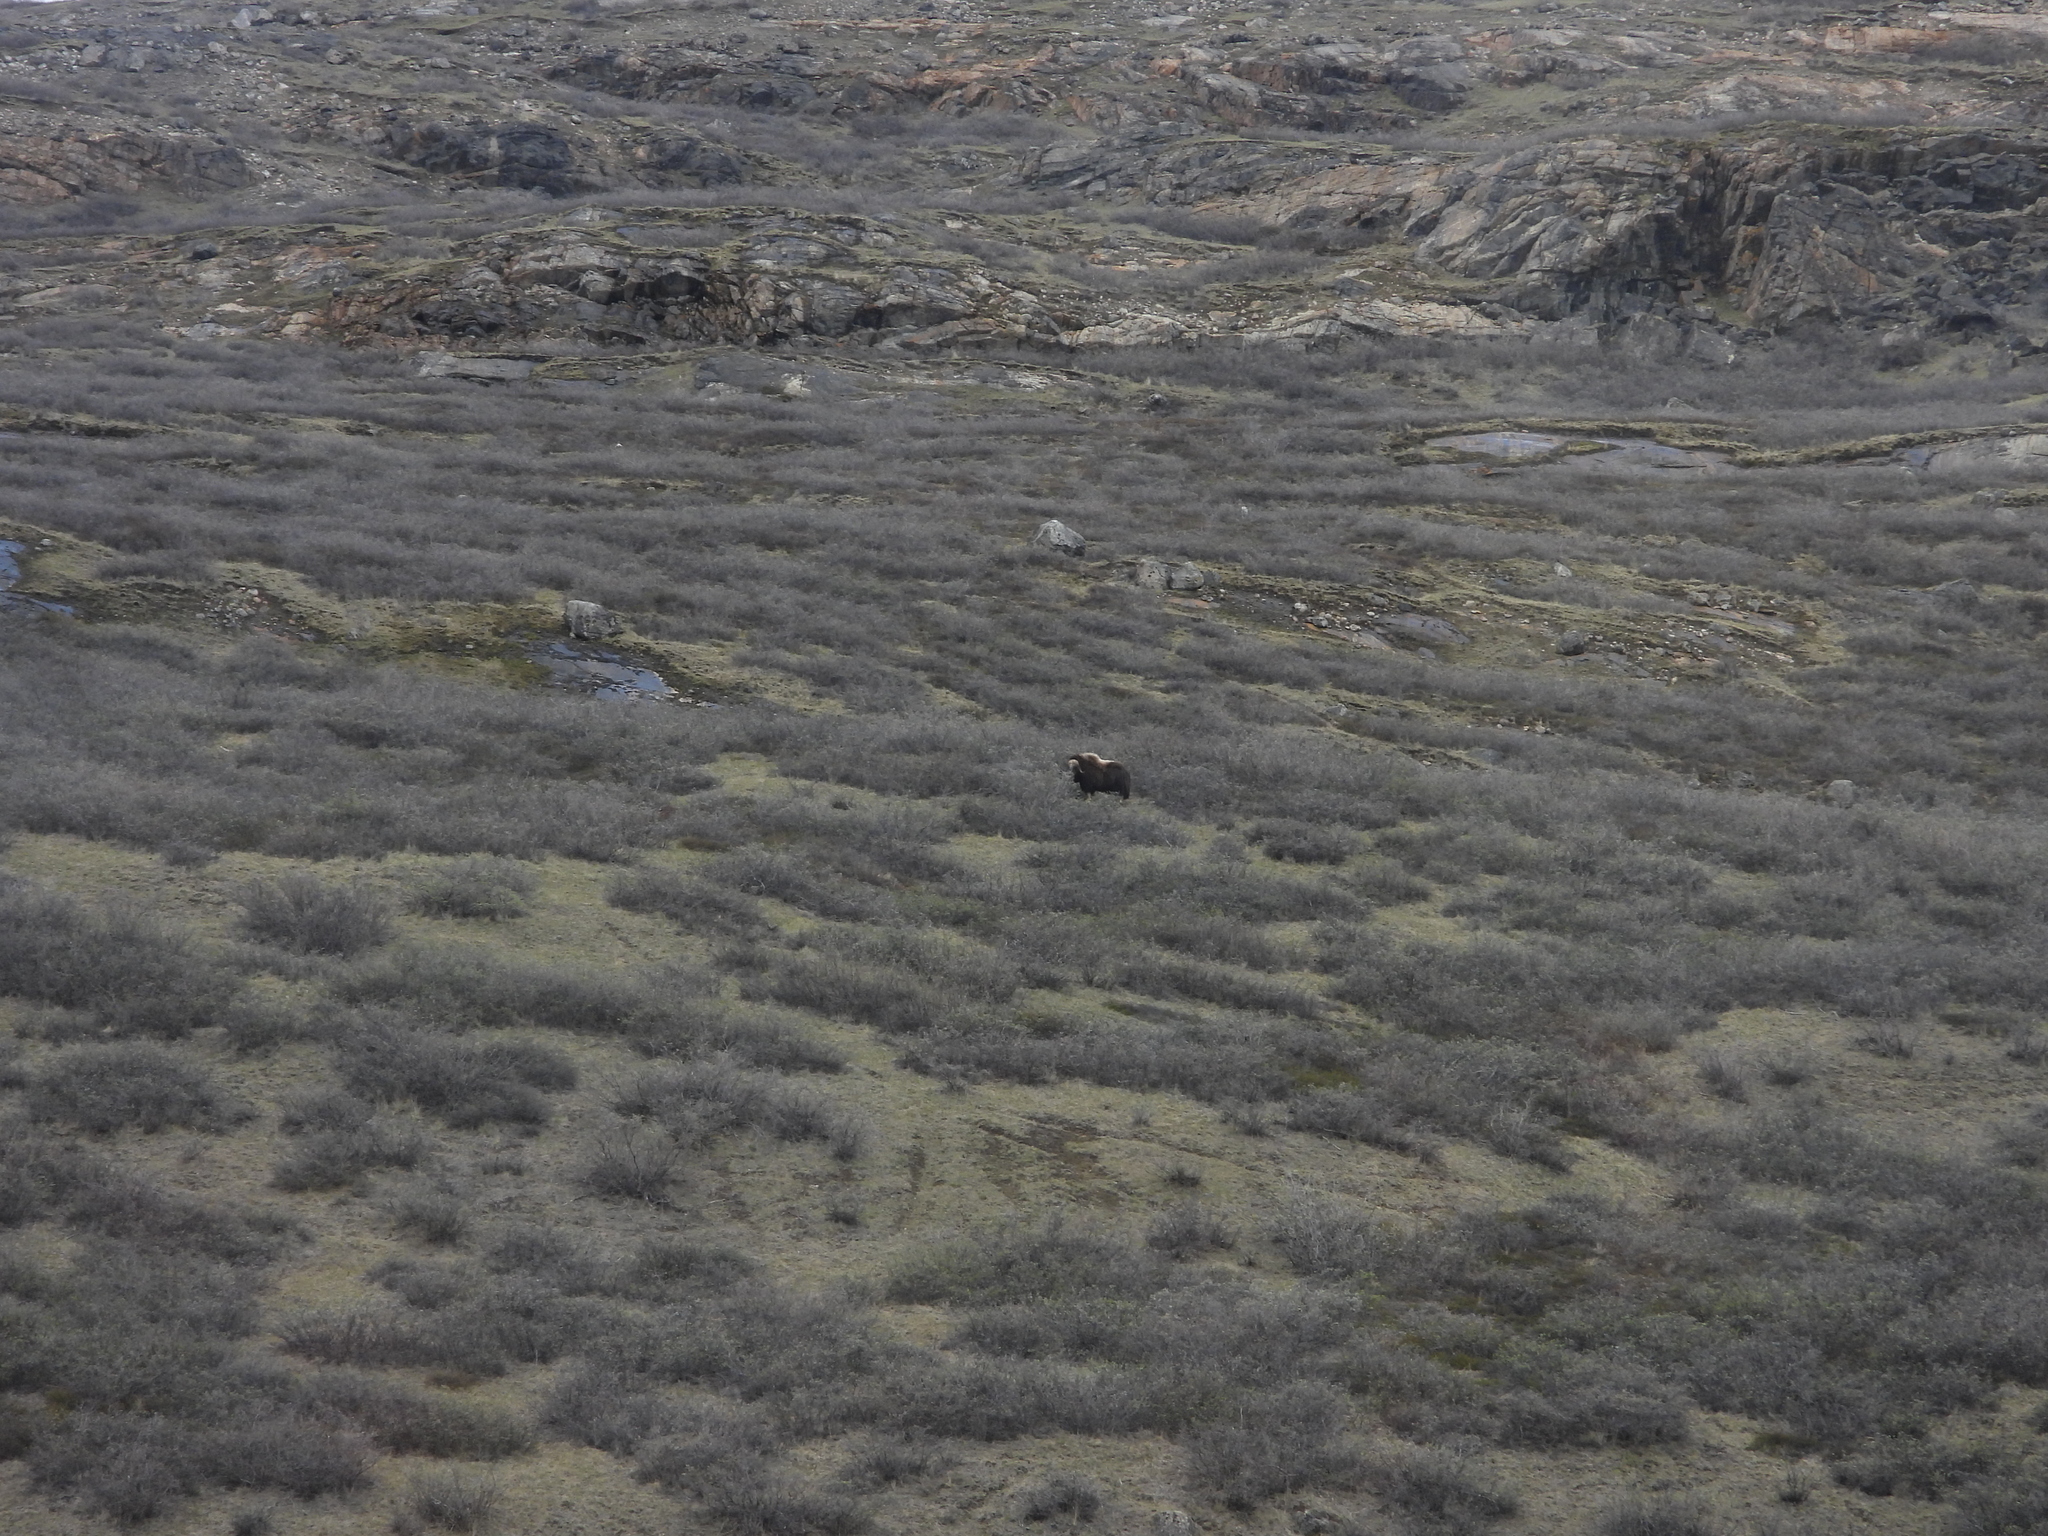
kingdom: Animalia
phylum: Chordata
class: Mammalia
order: Artiodactyla
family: Bovidae
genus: Ovibos
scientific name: Ovibos moschatus
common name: Muskox
